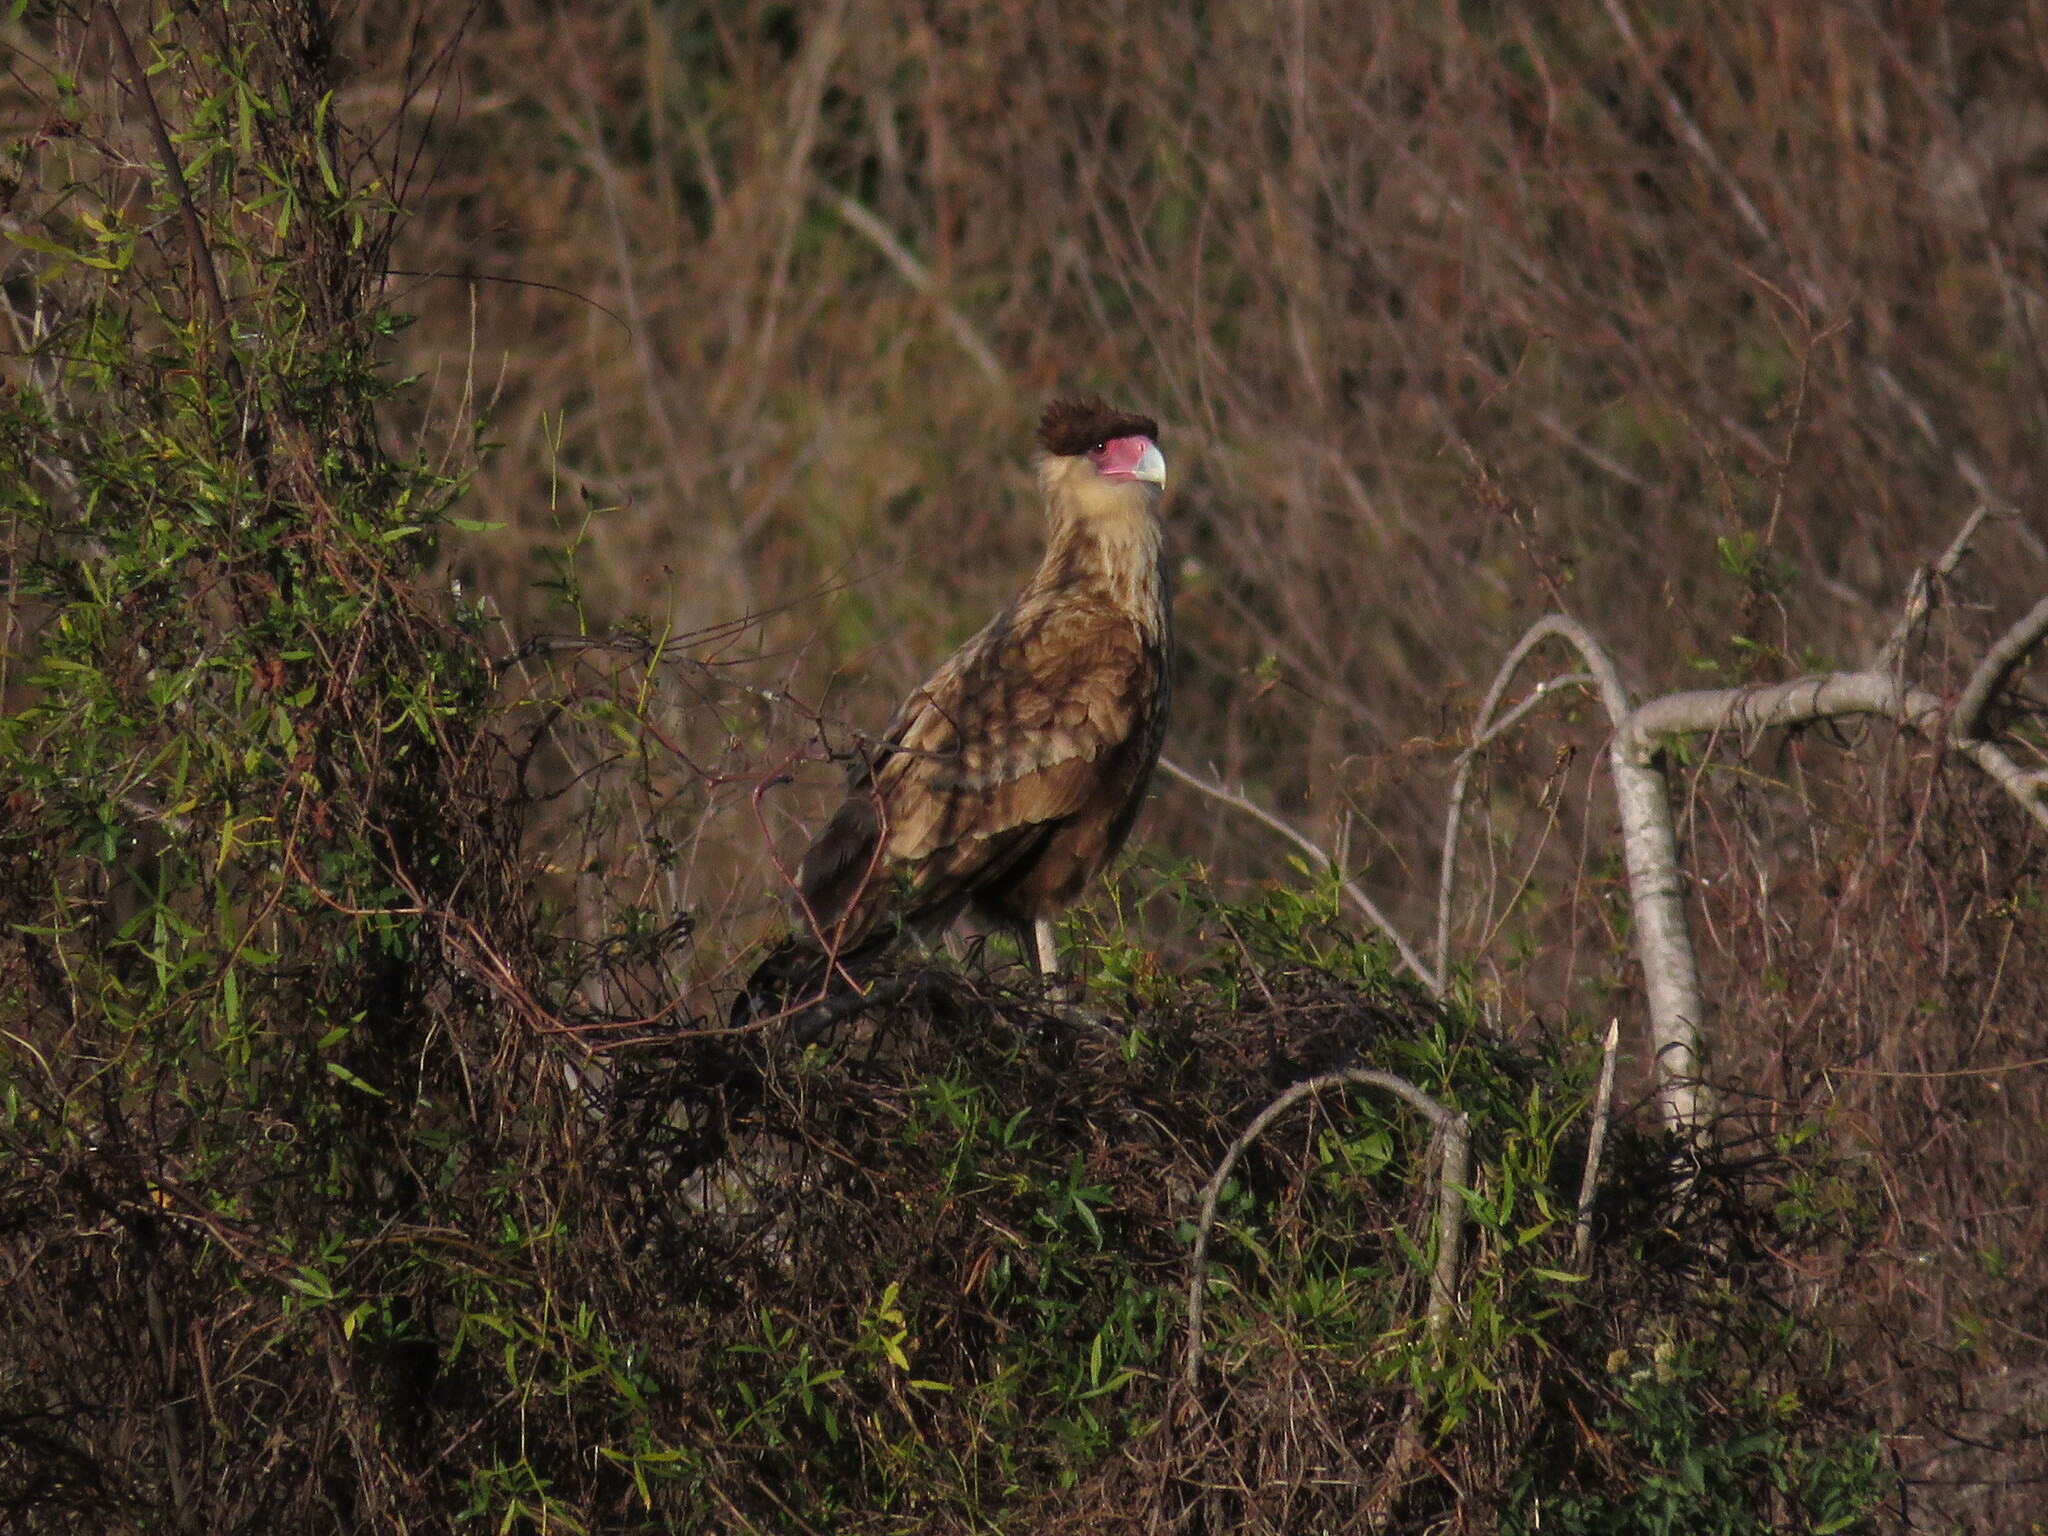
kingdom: Animalia
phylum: Chordata
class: Aves
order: Falconiformes
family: Falconidae
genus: Caracara
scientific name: Caracara plancus
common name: Southern caracara
